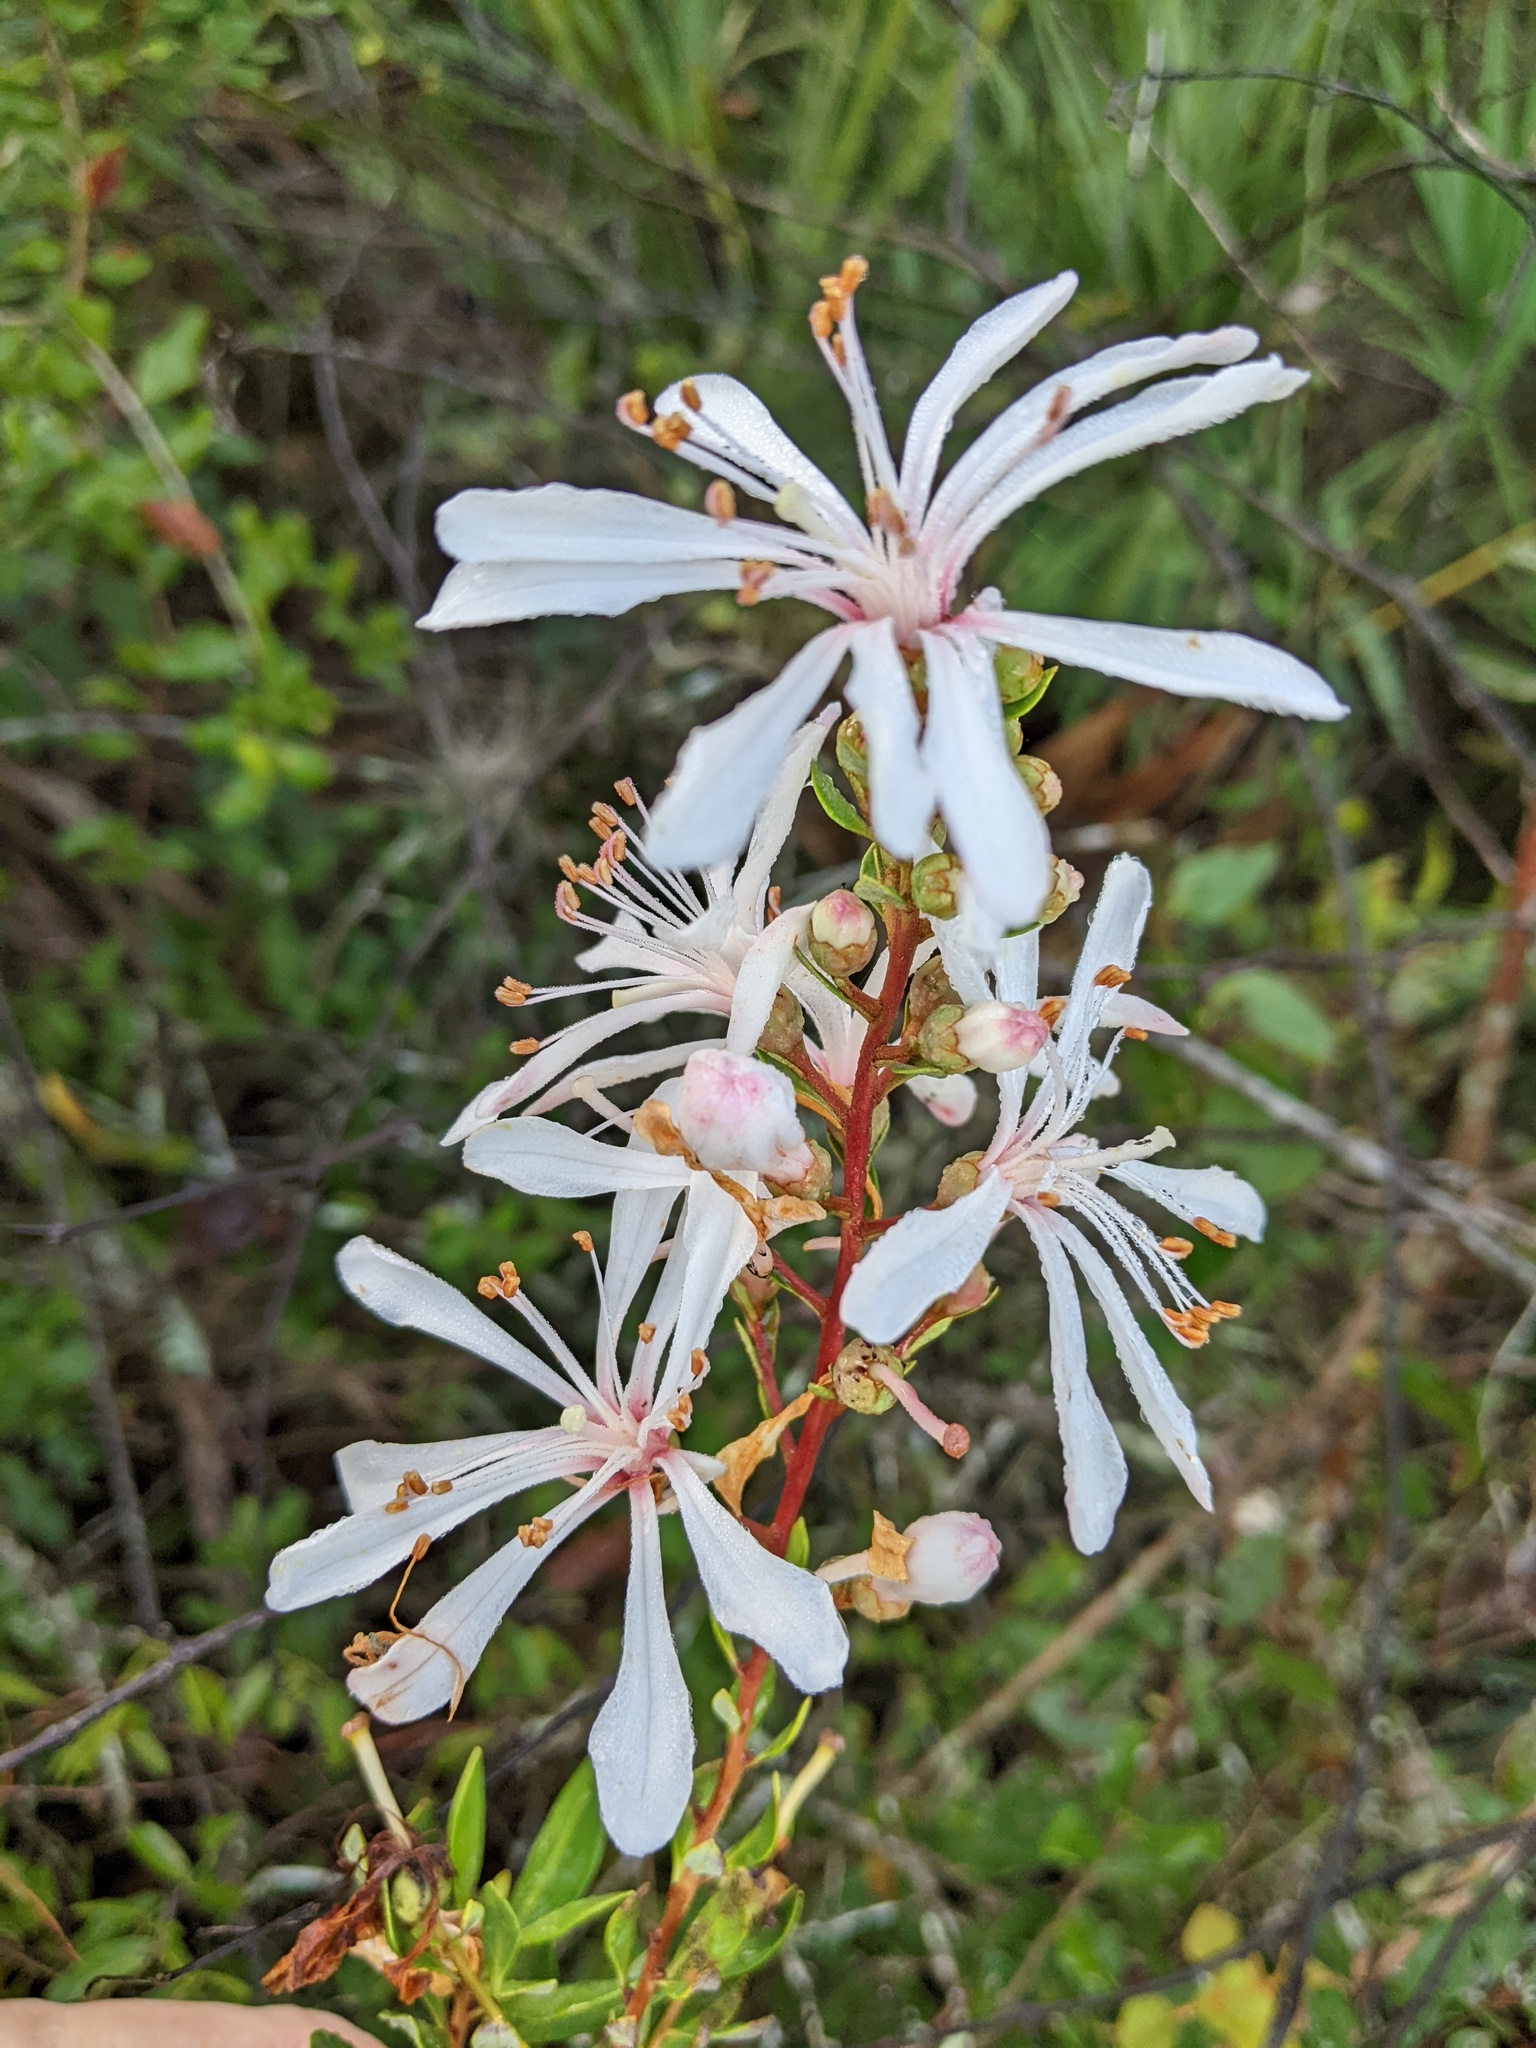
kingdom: Plantae
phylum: Tracheophyta
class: Magnoliopsida
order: Ericales
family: Ericaceae
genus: Bejaria
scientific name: Bejaria racemosa
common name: Tarflower
